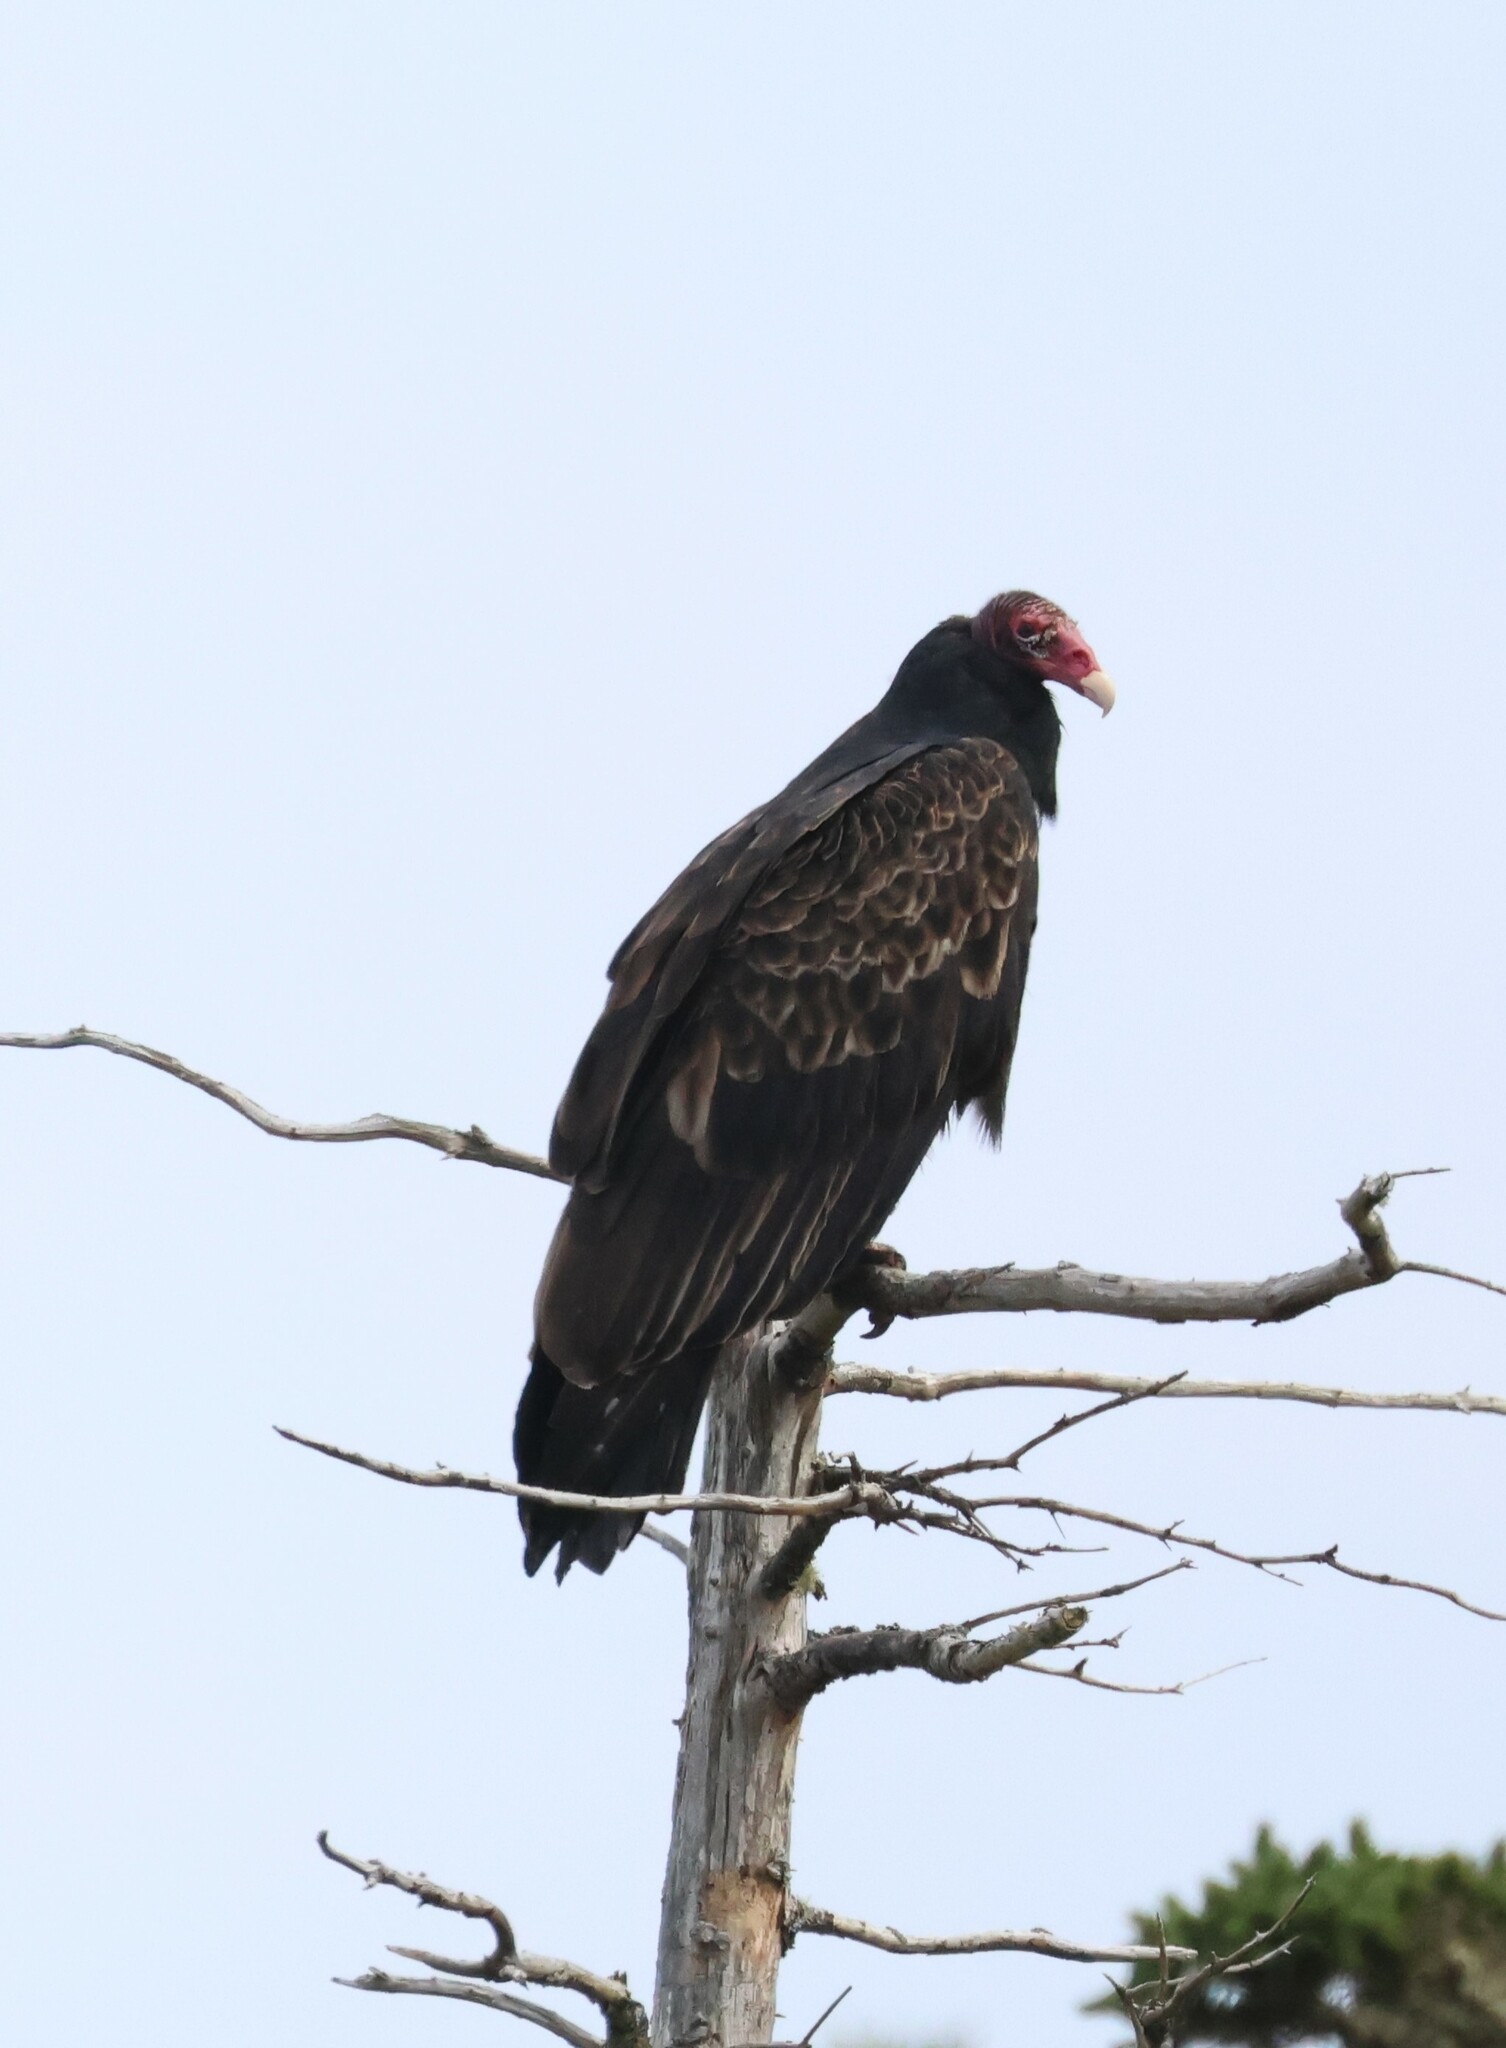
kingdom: Animalia
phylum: Chordata
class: Aves
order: Accipitriformes
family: Cathartidae
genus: Cathartes
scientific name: Cathartes aura
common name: Turkey vulture
